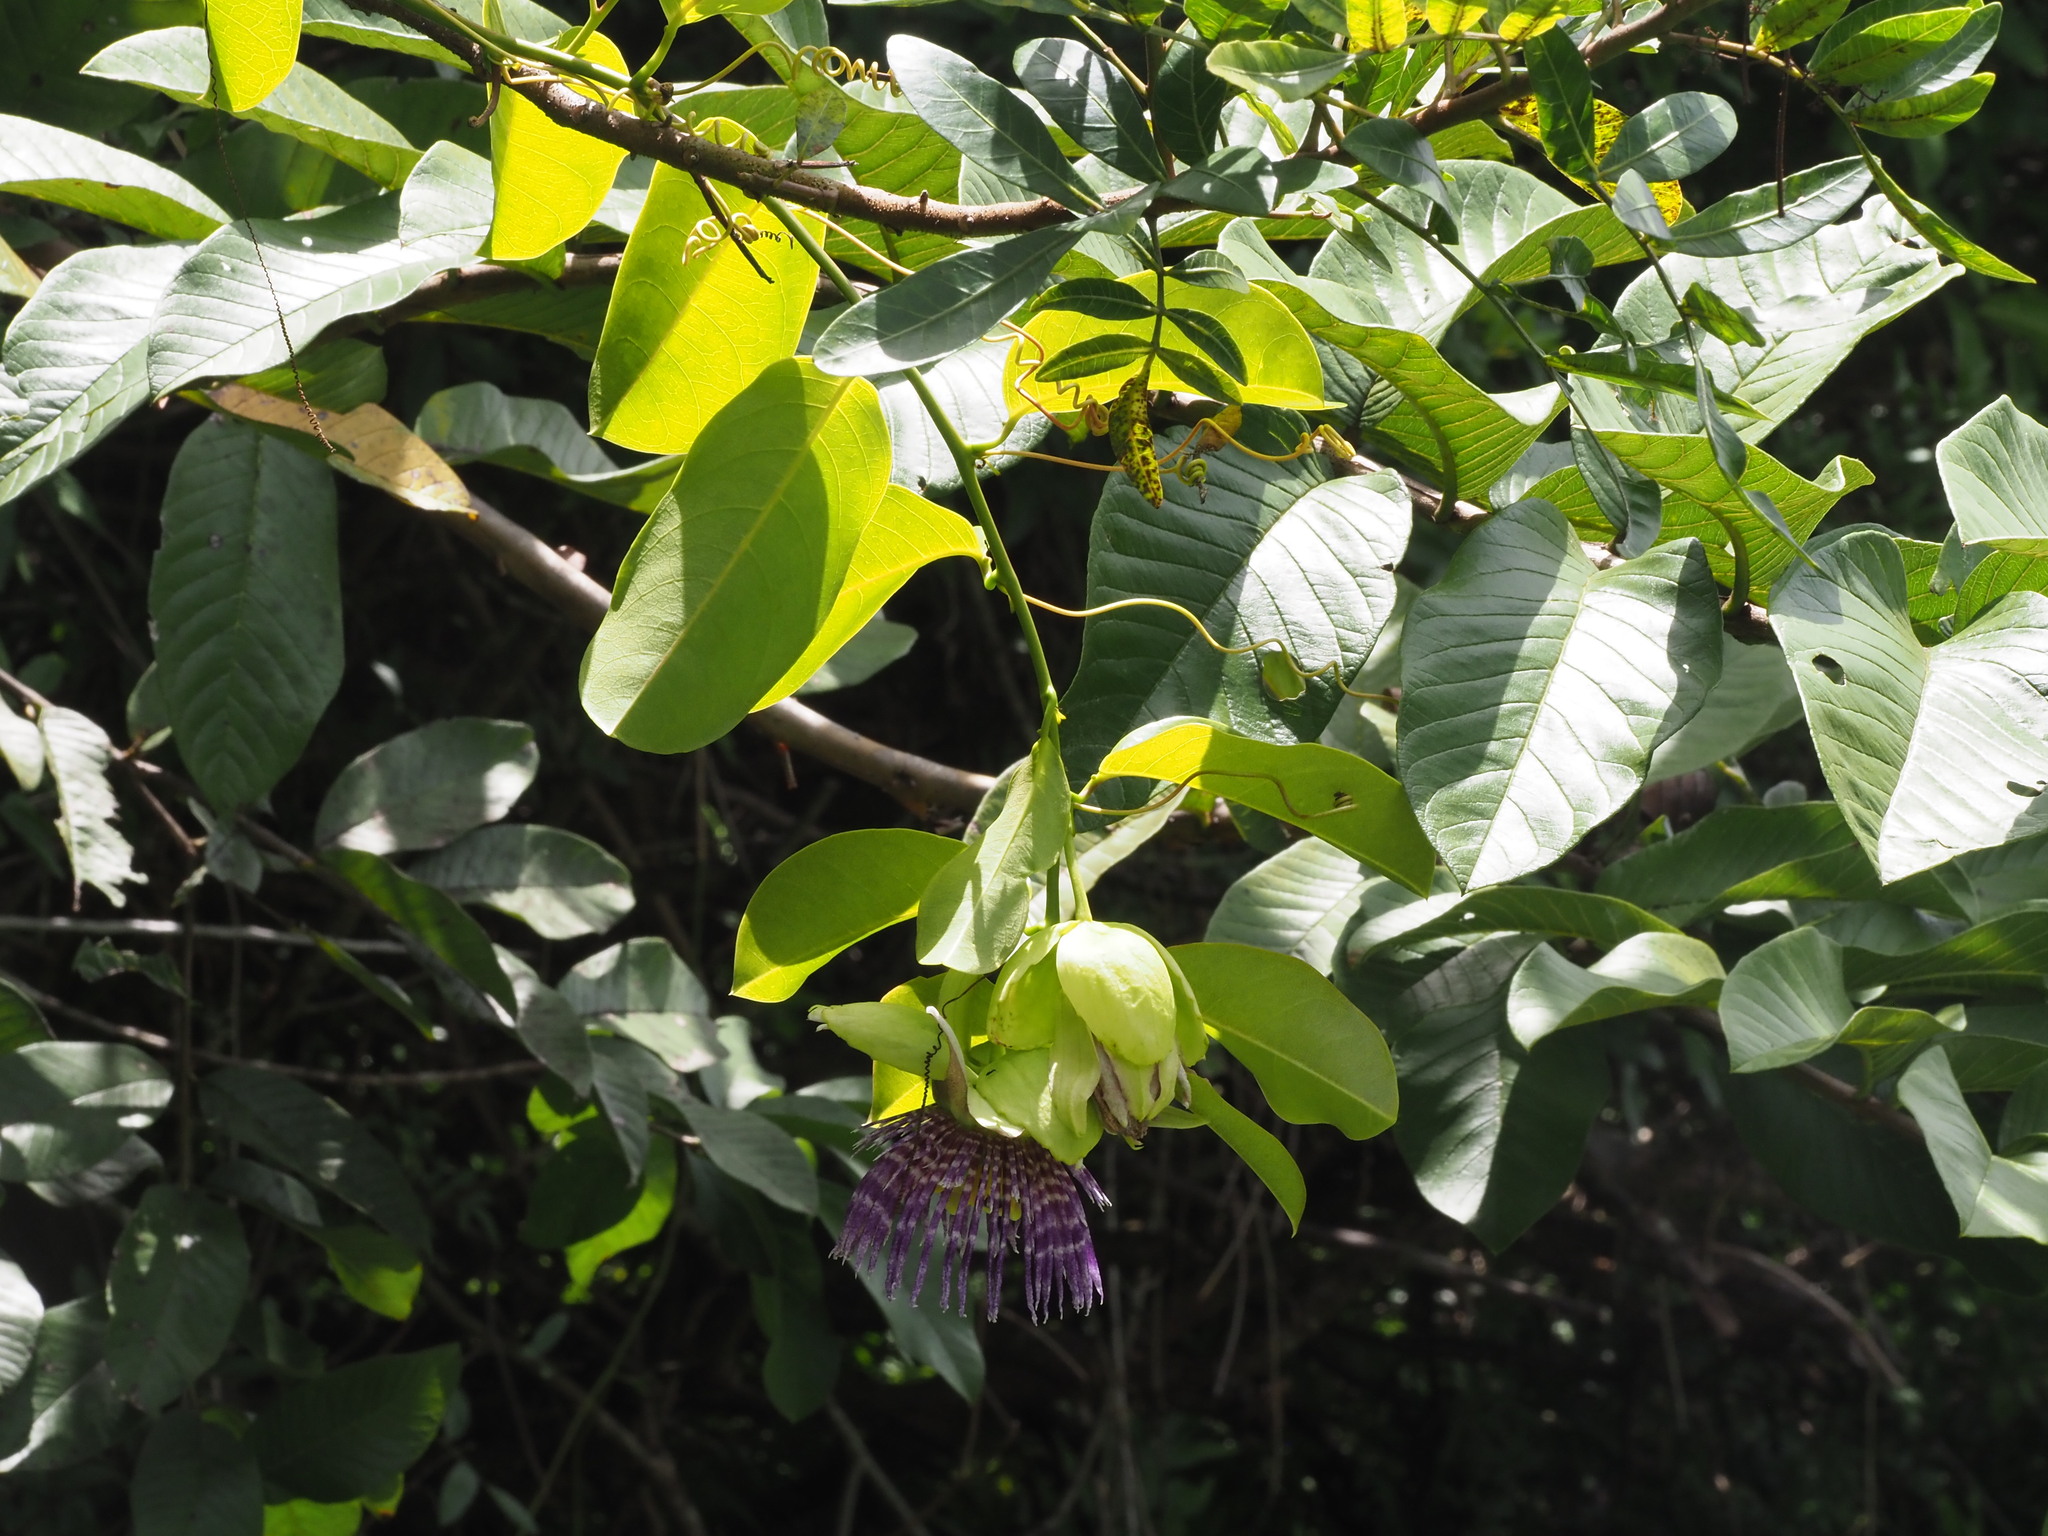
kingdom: Plantae
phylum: Tracheophyta
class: Magnoliopsida
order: Malpighiales
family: Passifloraceae
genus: Passiflora
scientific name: Passiflora laurifolia
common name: Bell apple
